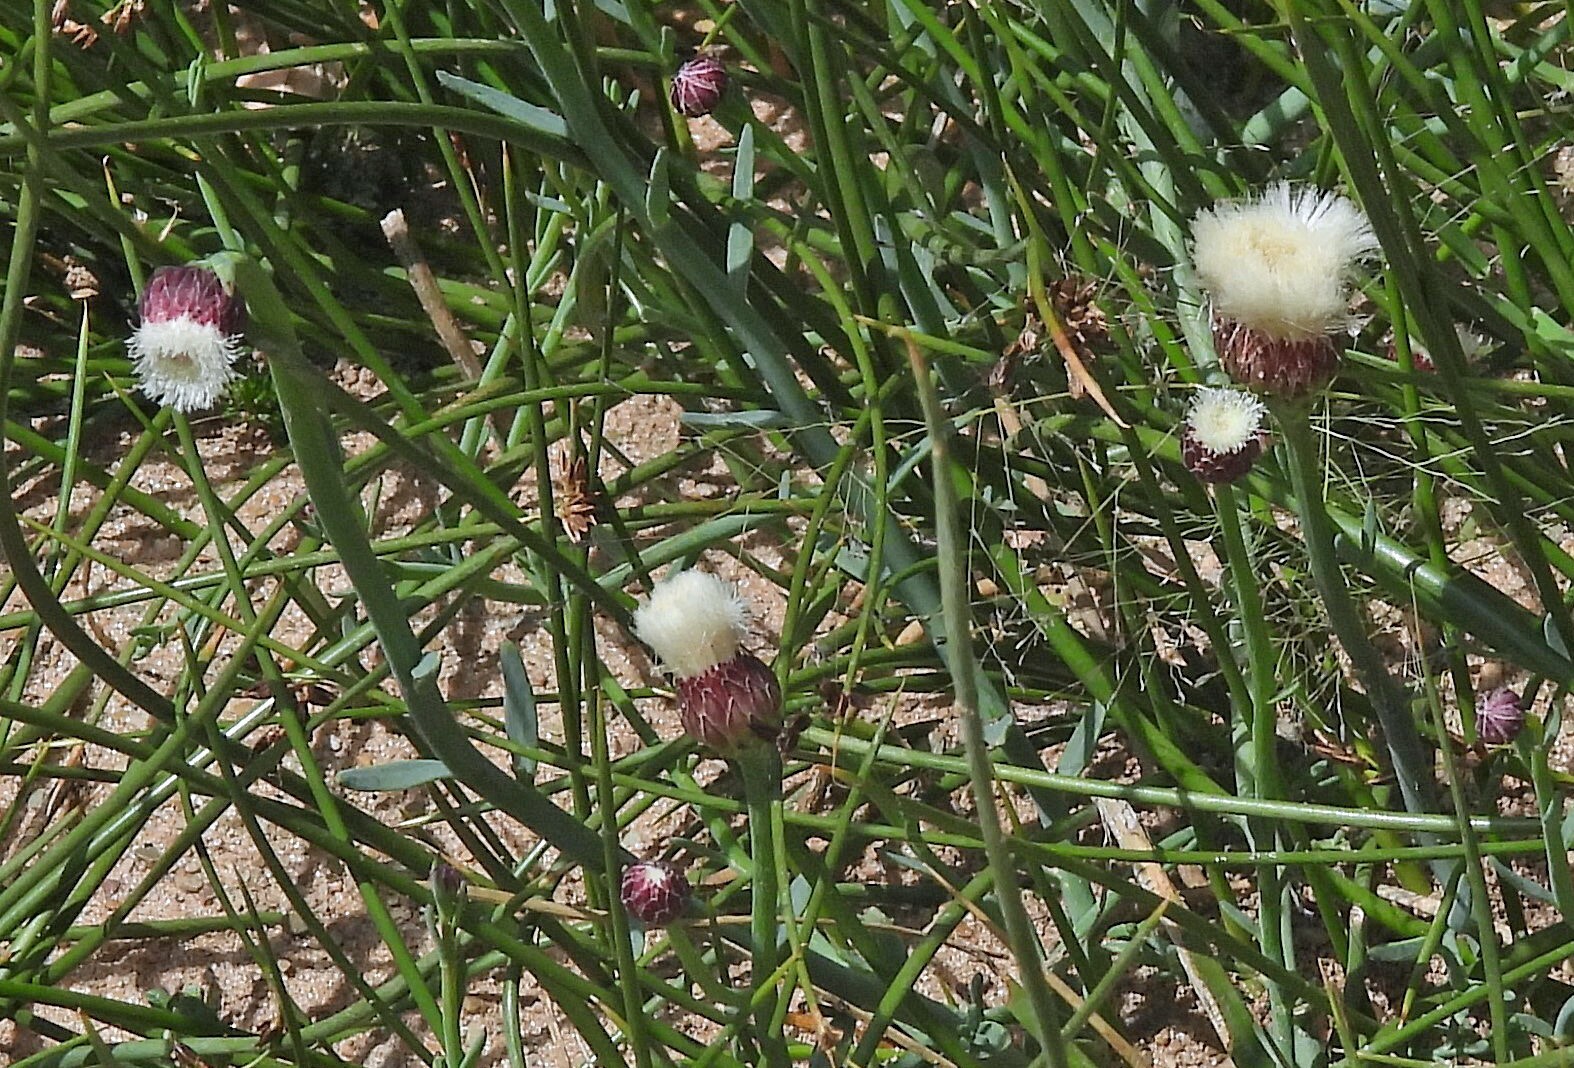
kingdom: Plantae
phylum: Tracheophyta
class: Magnoliopsida
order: Asterales
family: Asteraceae
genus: Baccharis
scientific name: Baccharis juncea
